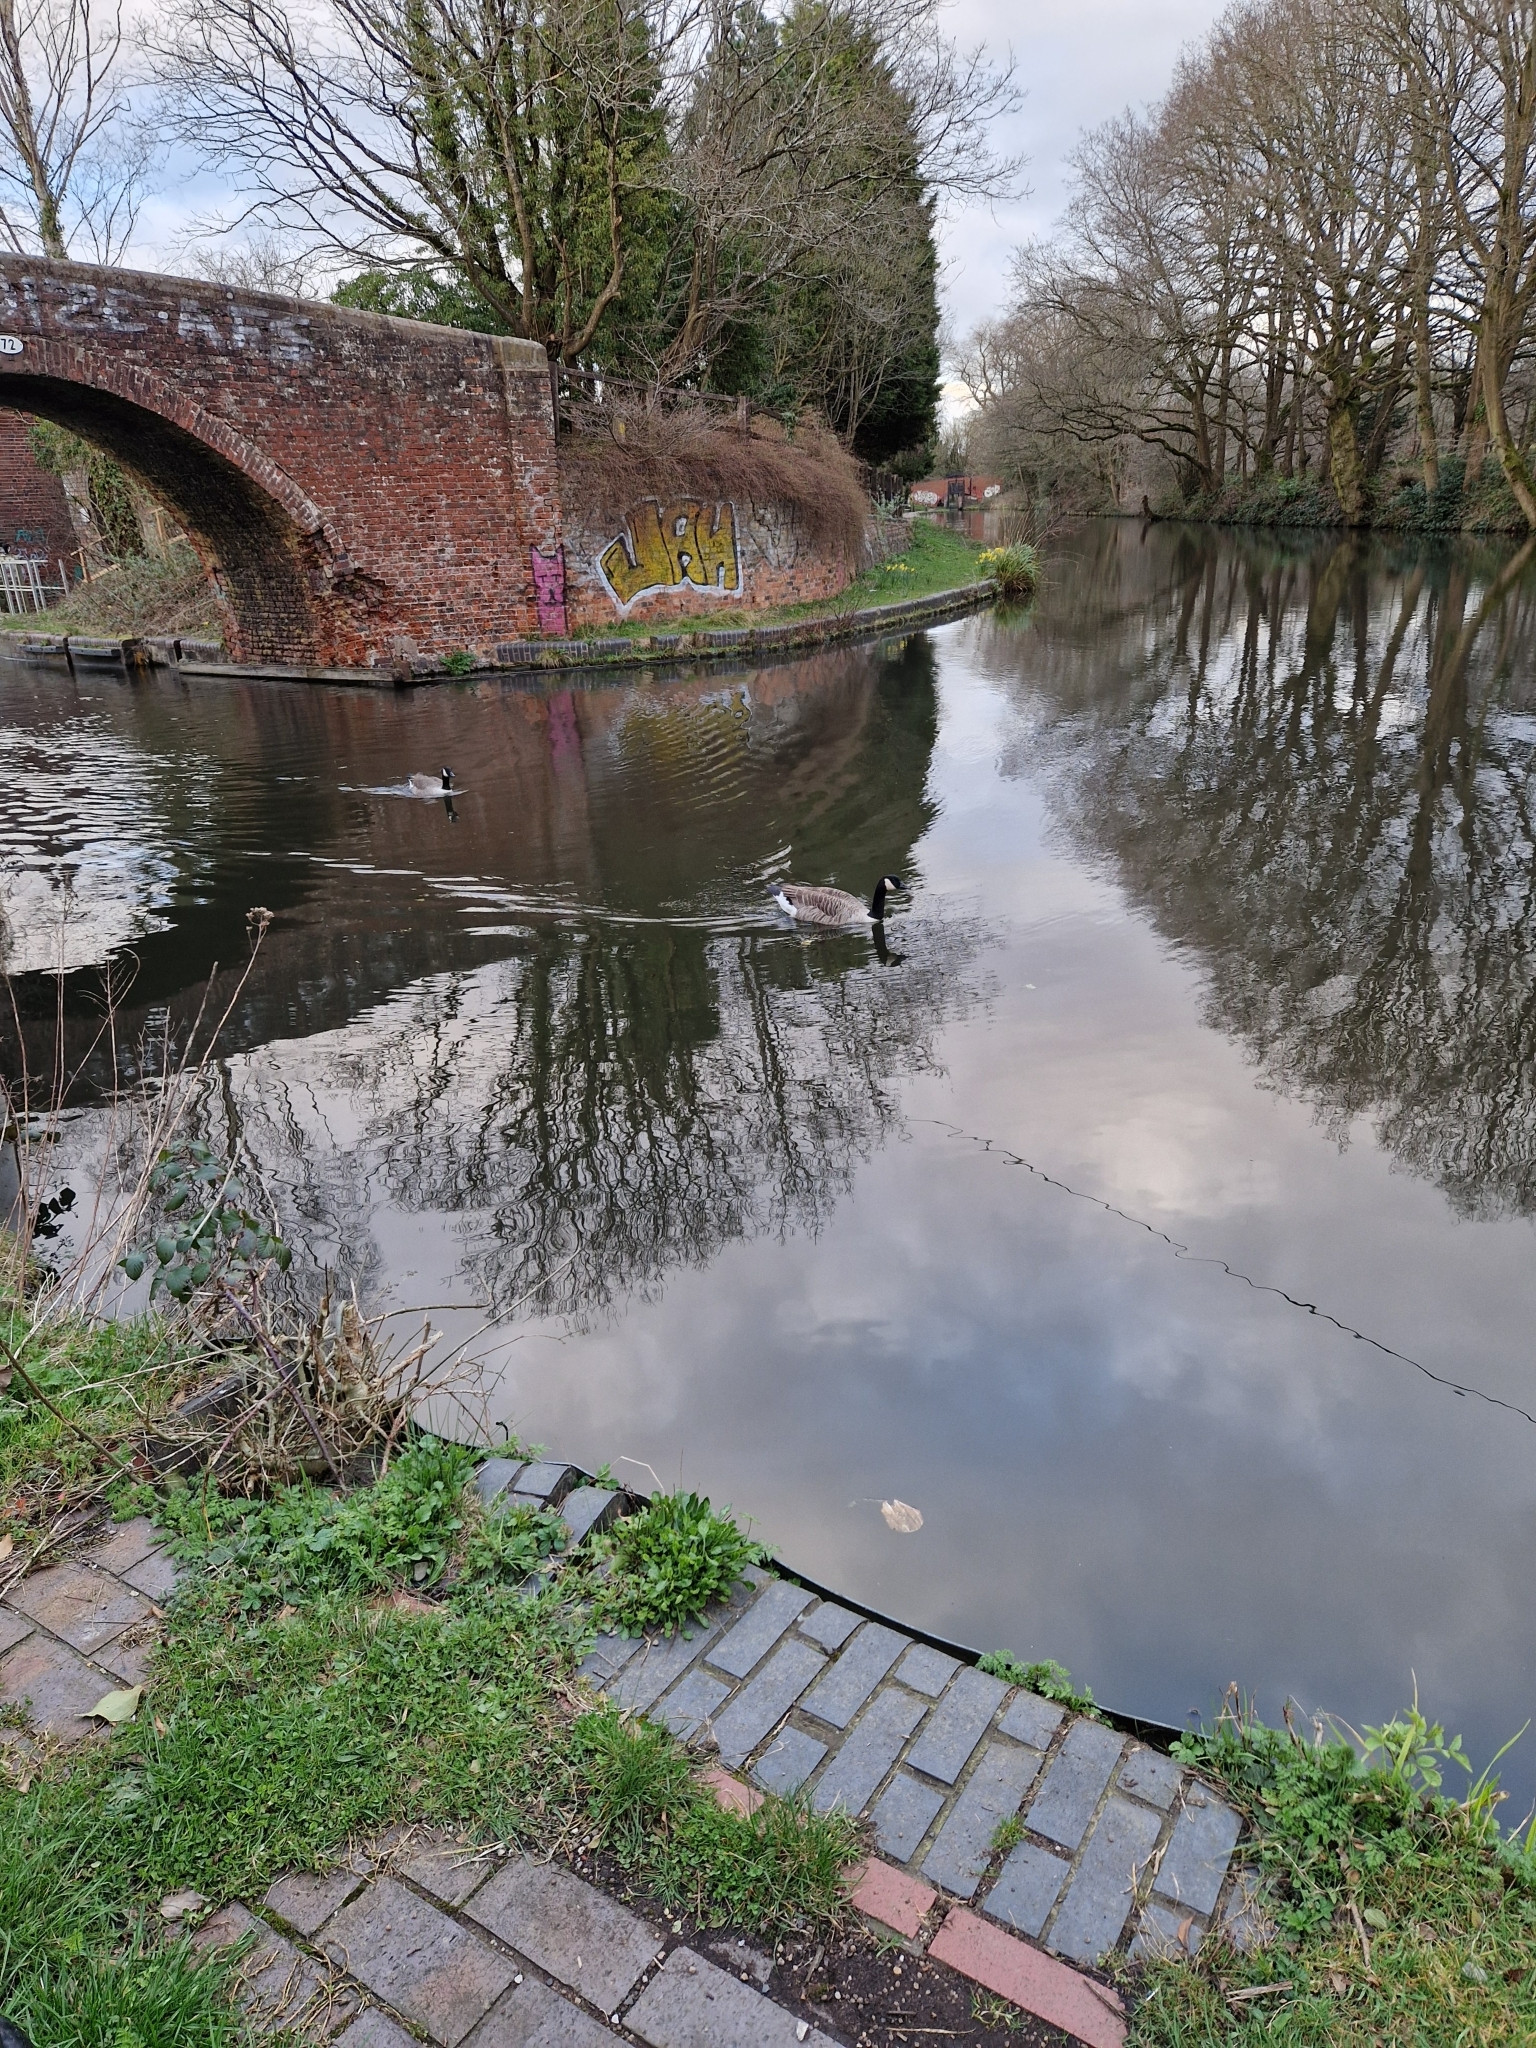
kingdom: Animalia
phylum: Chordata
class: Aves
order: Anseriformes
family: Anatidae
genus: Branta
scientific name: Branta canadensis
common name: Canada goose
